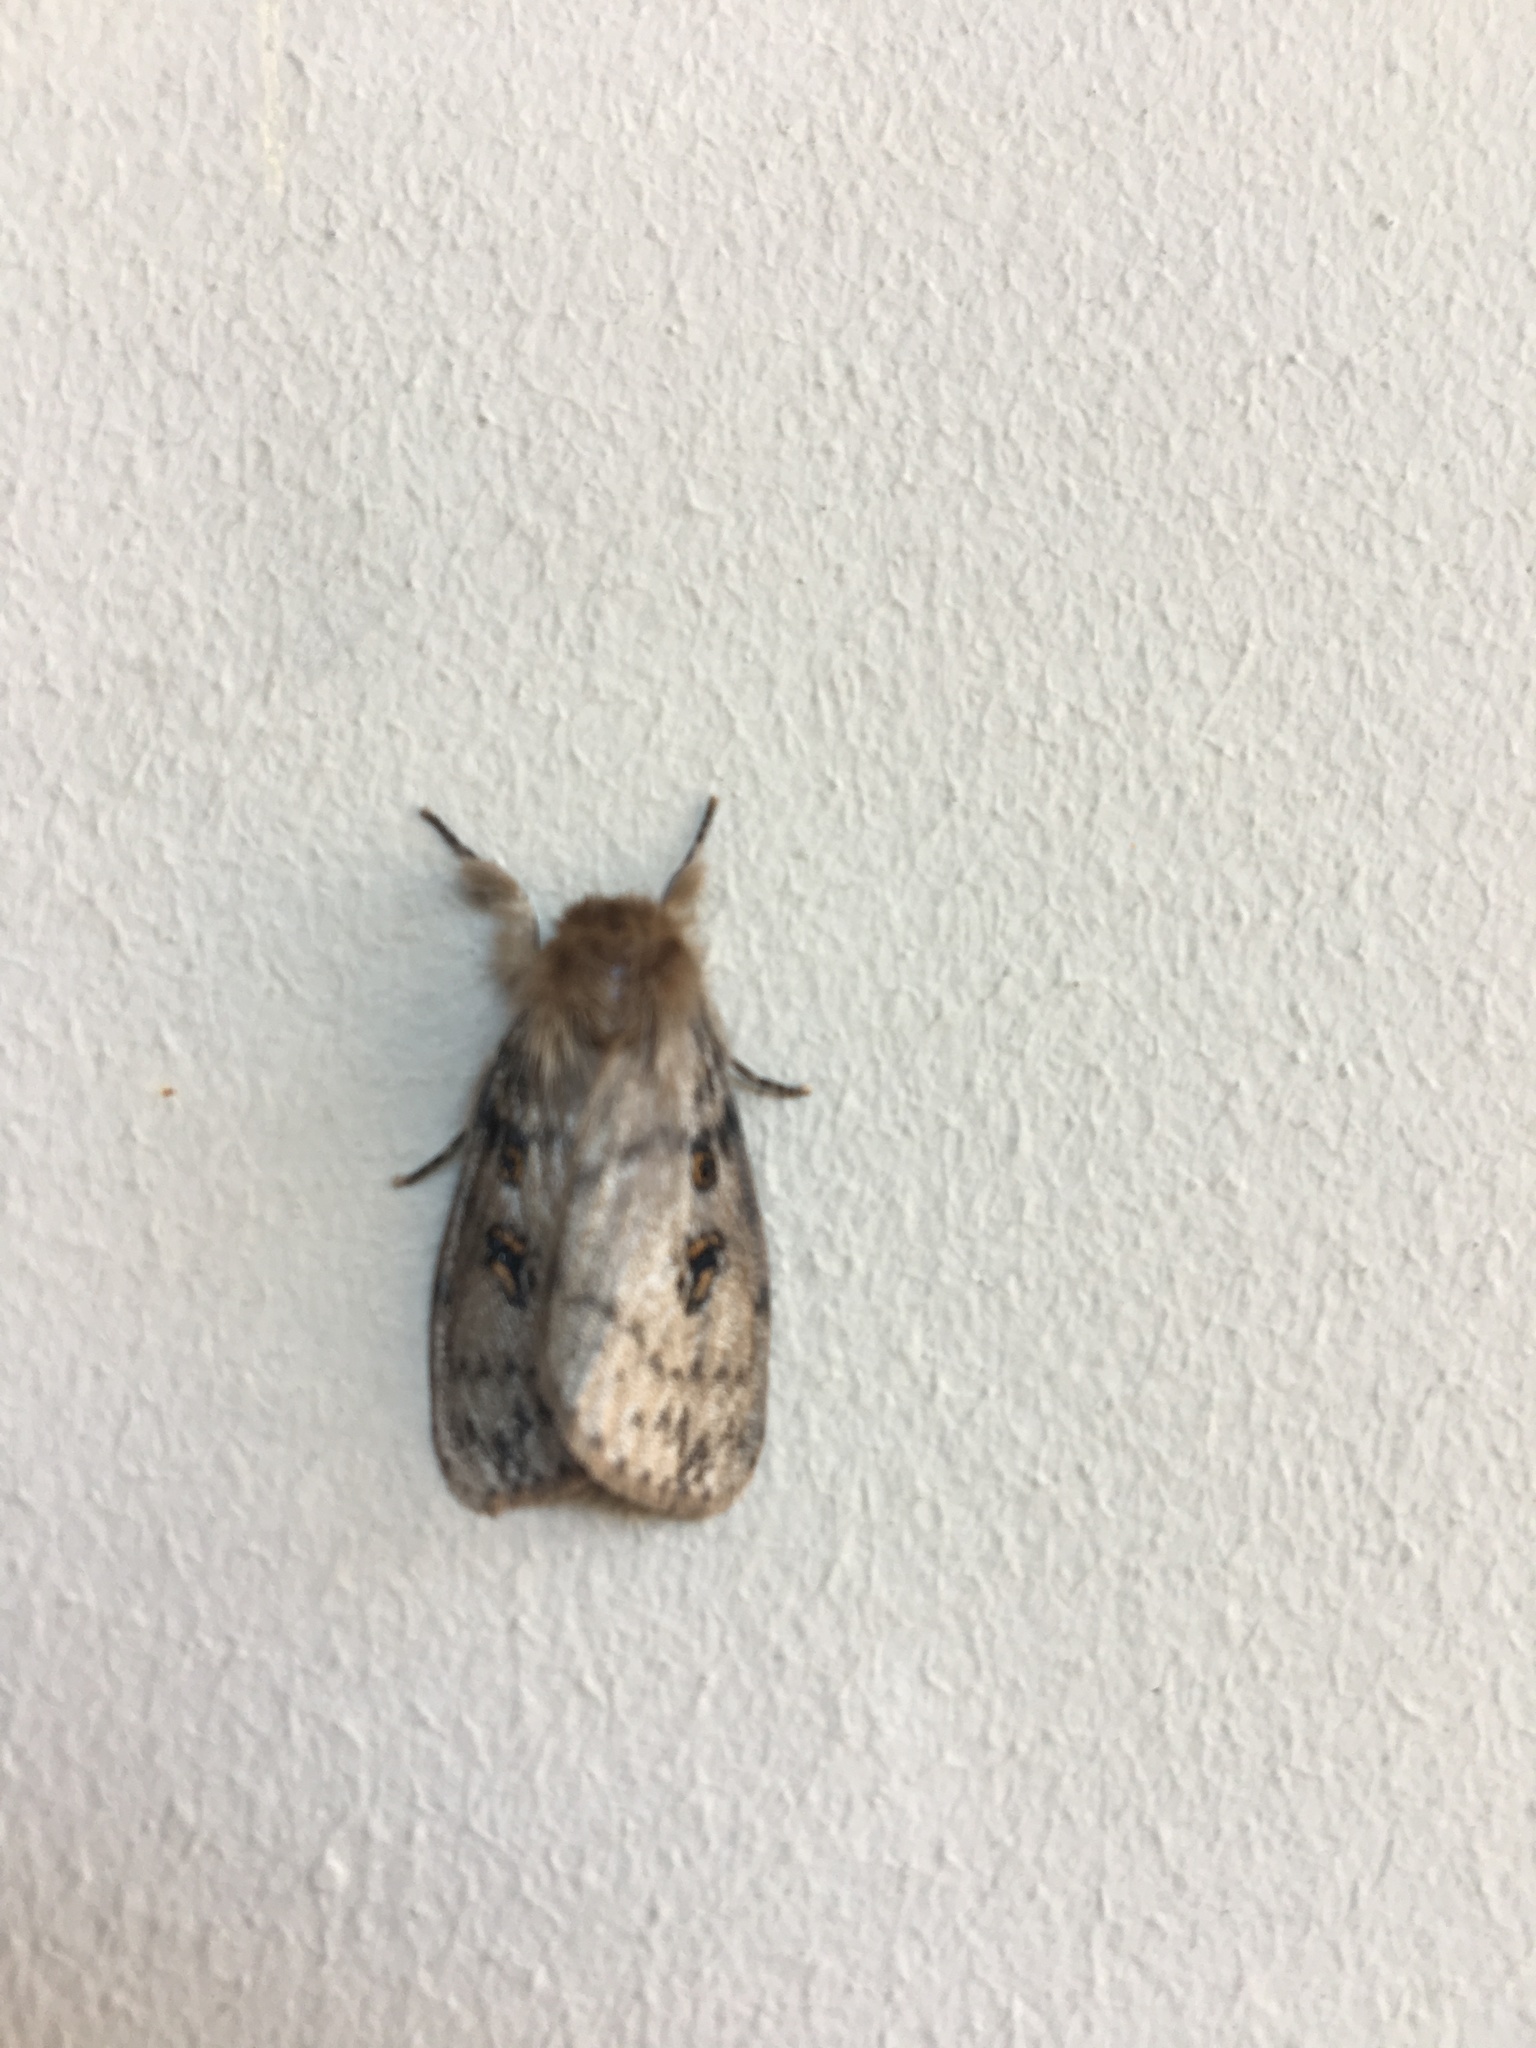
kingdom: Animalia
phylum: Arthropoda
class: Insecta
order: Lepidoptera
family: Erebidae
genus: Leptocneria
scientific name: Leptocneria reducta
